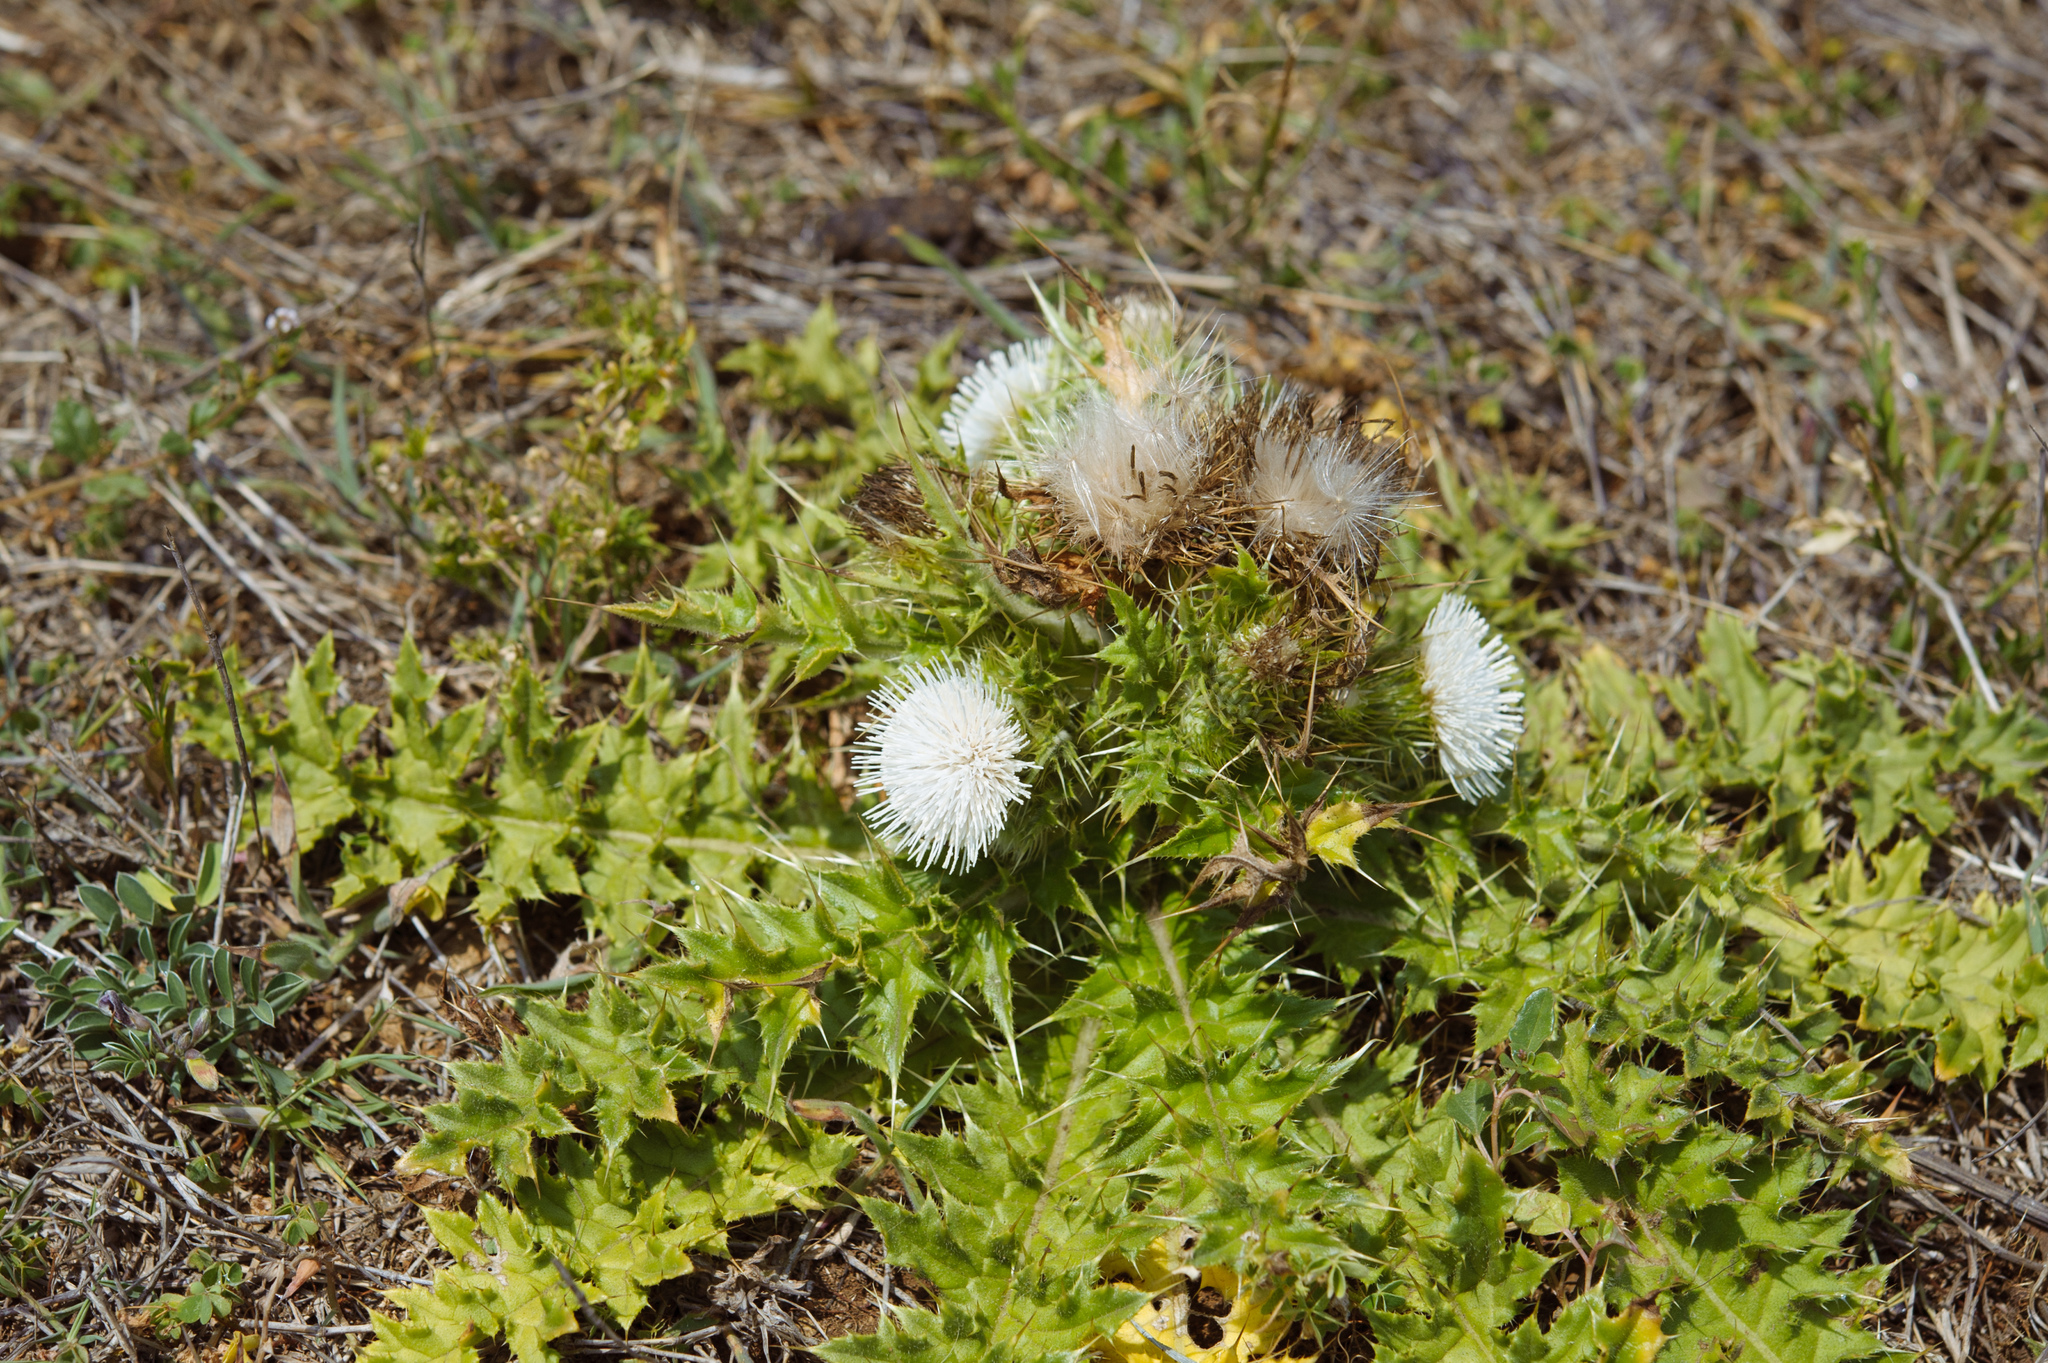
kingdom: Plantae
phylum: Tracheophyta
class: Magnoliopsida
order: Asterales
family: Asteraceae
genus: Cirsium
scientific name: Cirsium brevicaule
